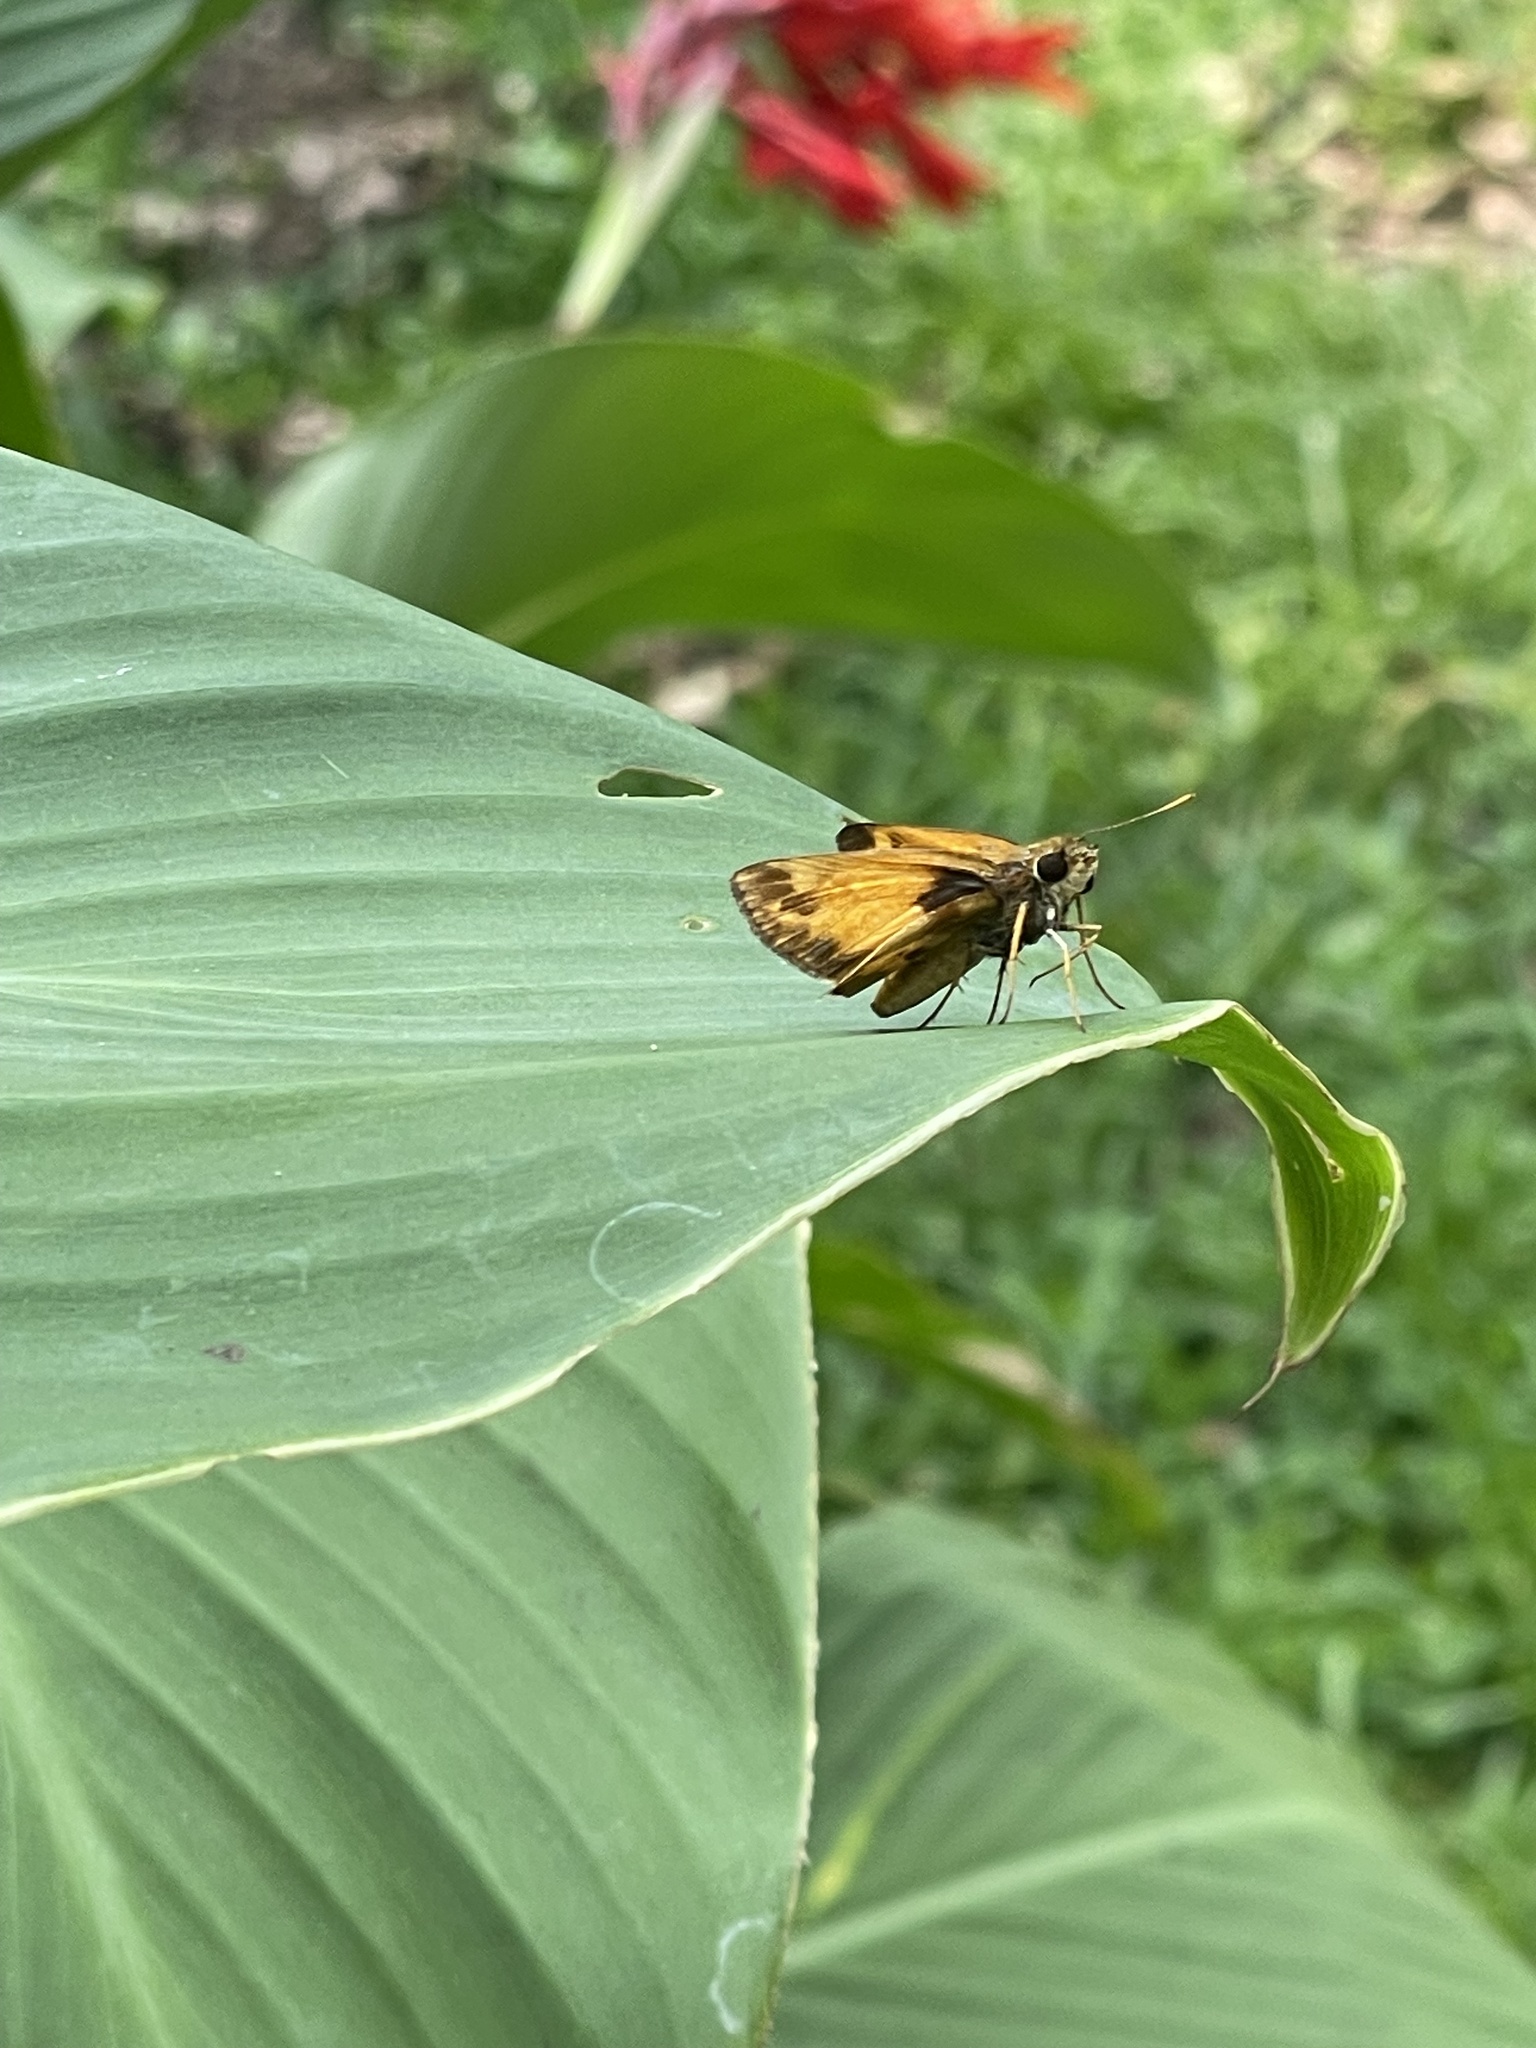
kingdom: Animalia
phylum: Arthropoda
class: Insecta
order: Lepidoptera
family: Hesperiidae
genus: Lon
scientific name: Lon zabulon
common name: Zabulon skipper
